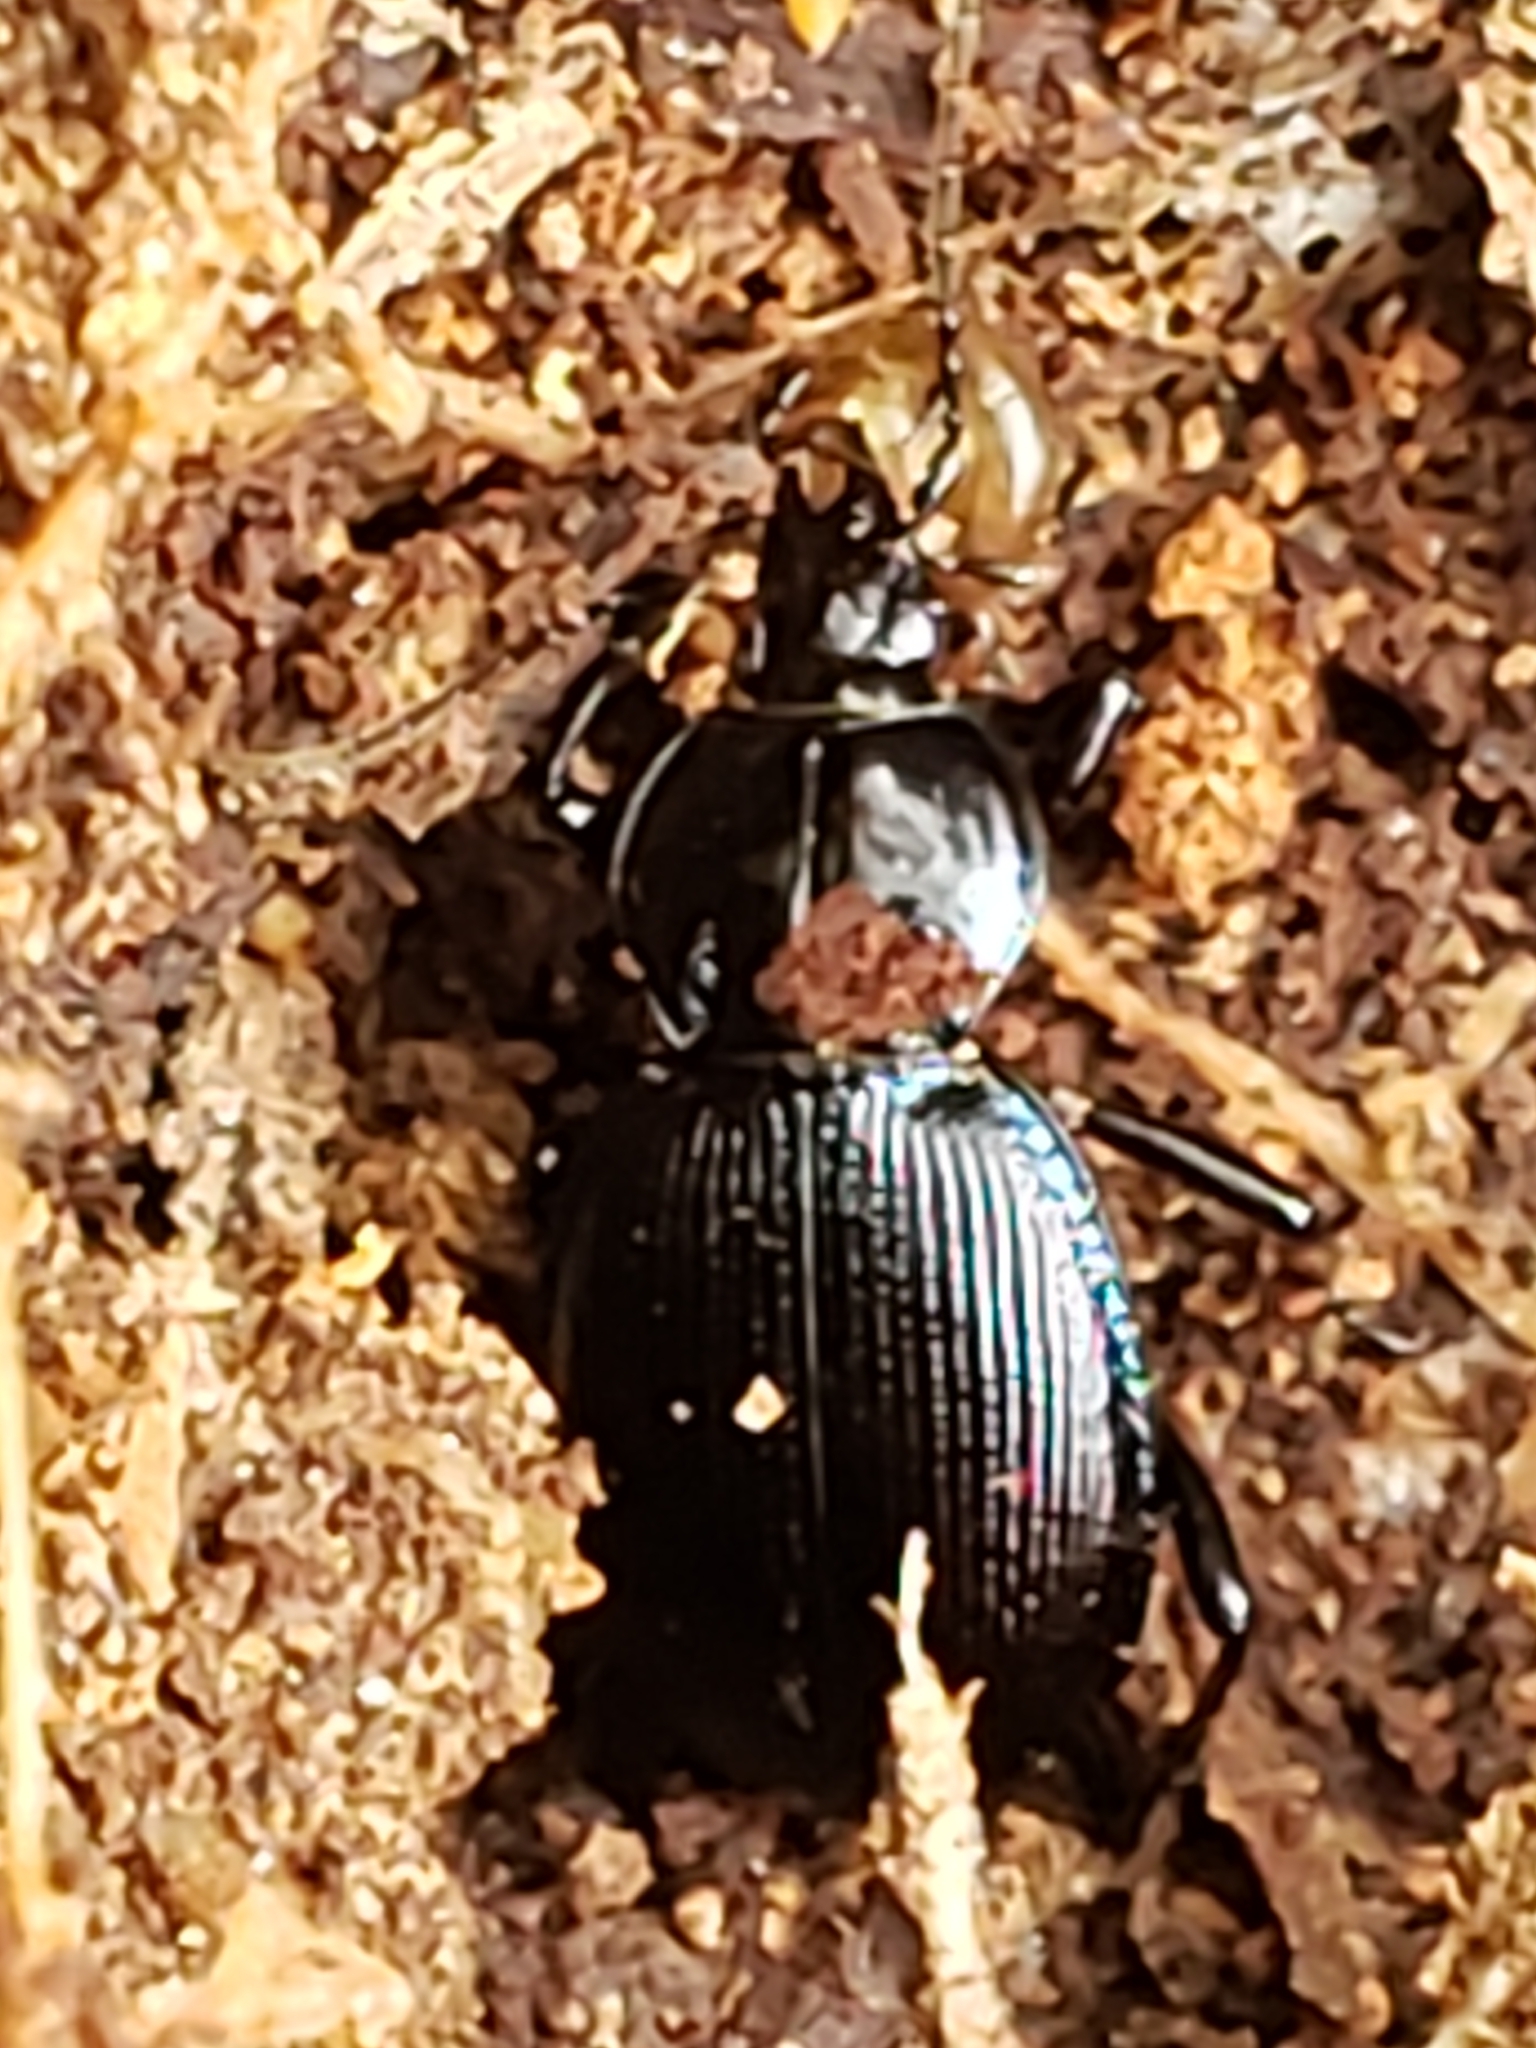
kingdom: Animalia
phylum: Arthropoda
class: Insecta
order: Coleoptera
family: Carabidae
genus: Sphaeroderus
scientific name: Sphaeroderus stenostomus
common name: Small snail-eating ground beetle
